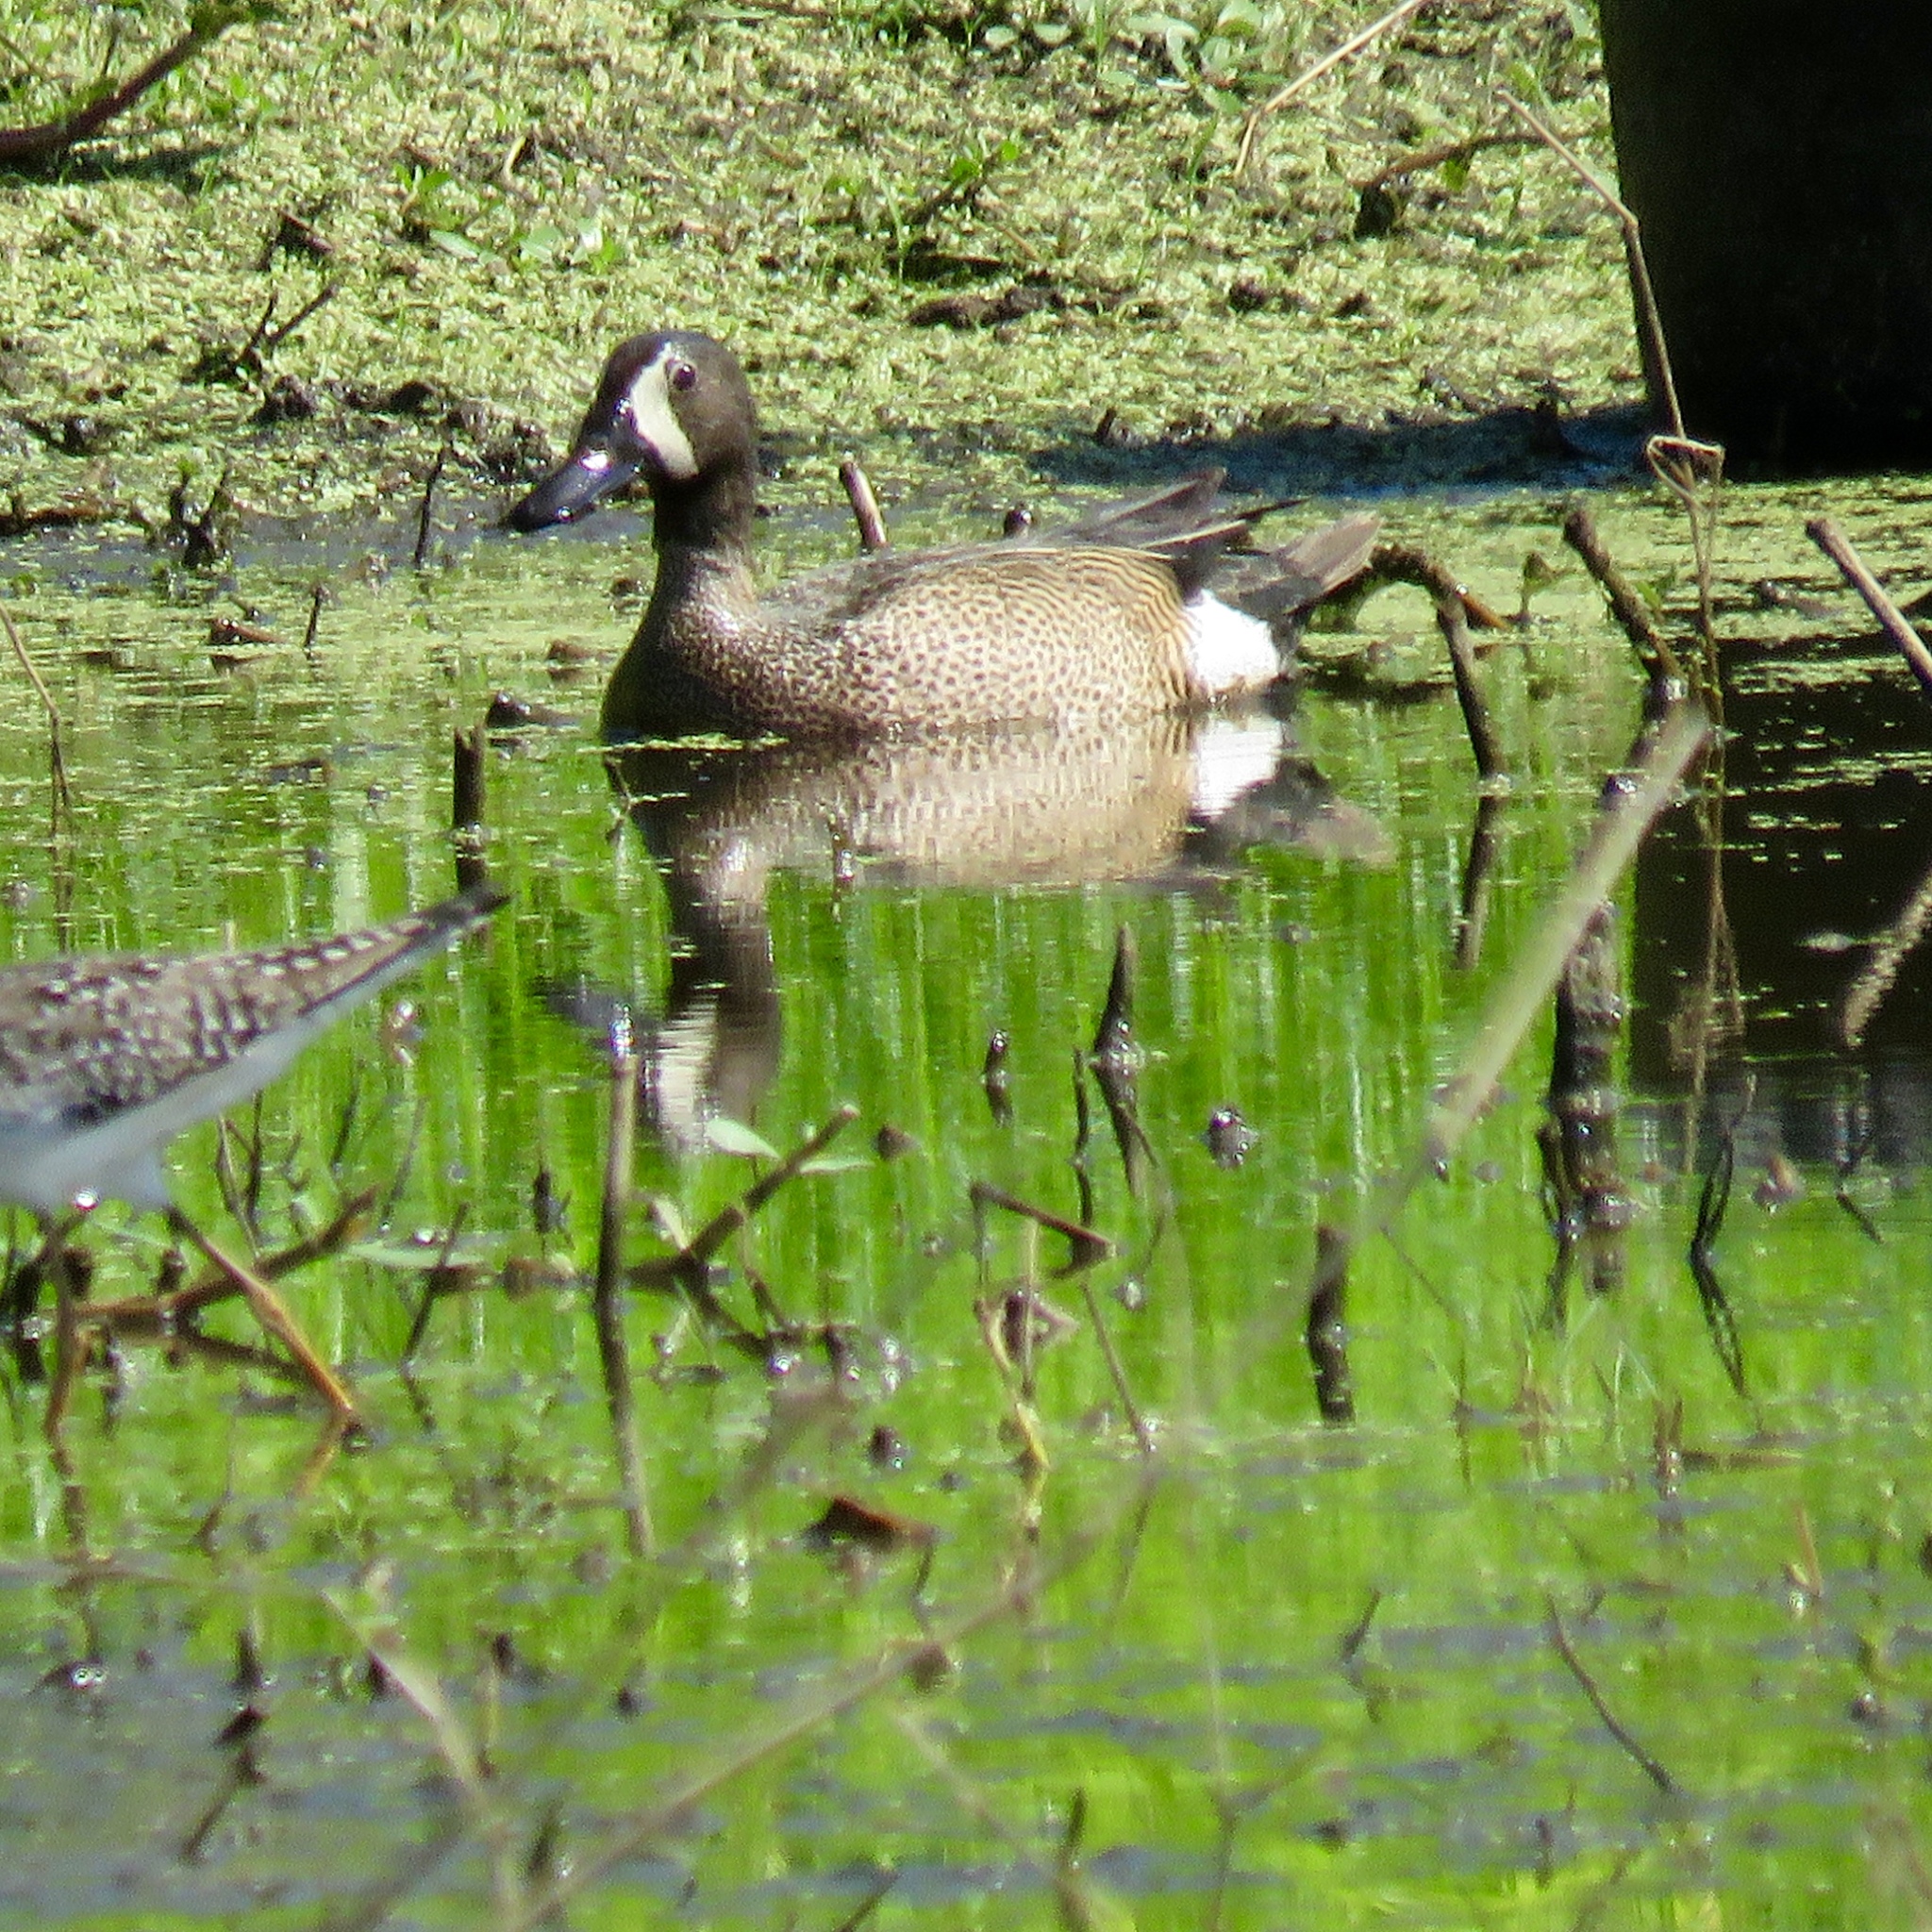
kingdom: Animalia
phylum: Chordata
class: Aves
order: Anseriformes
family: Anatidae
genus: Spatula
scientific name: Spatula discors
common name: Blue-winged teal
